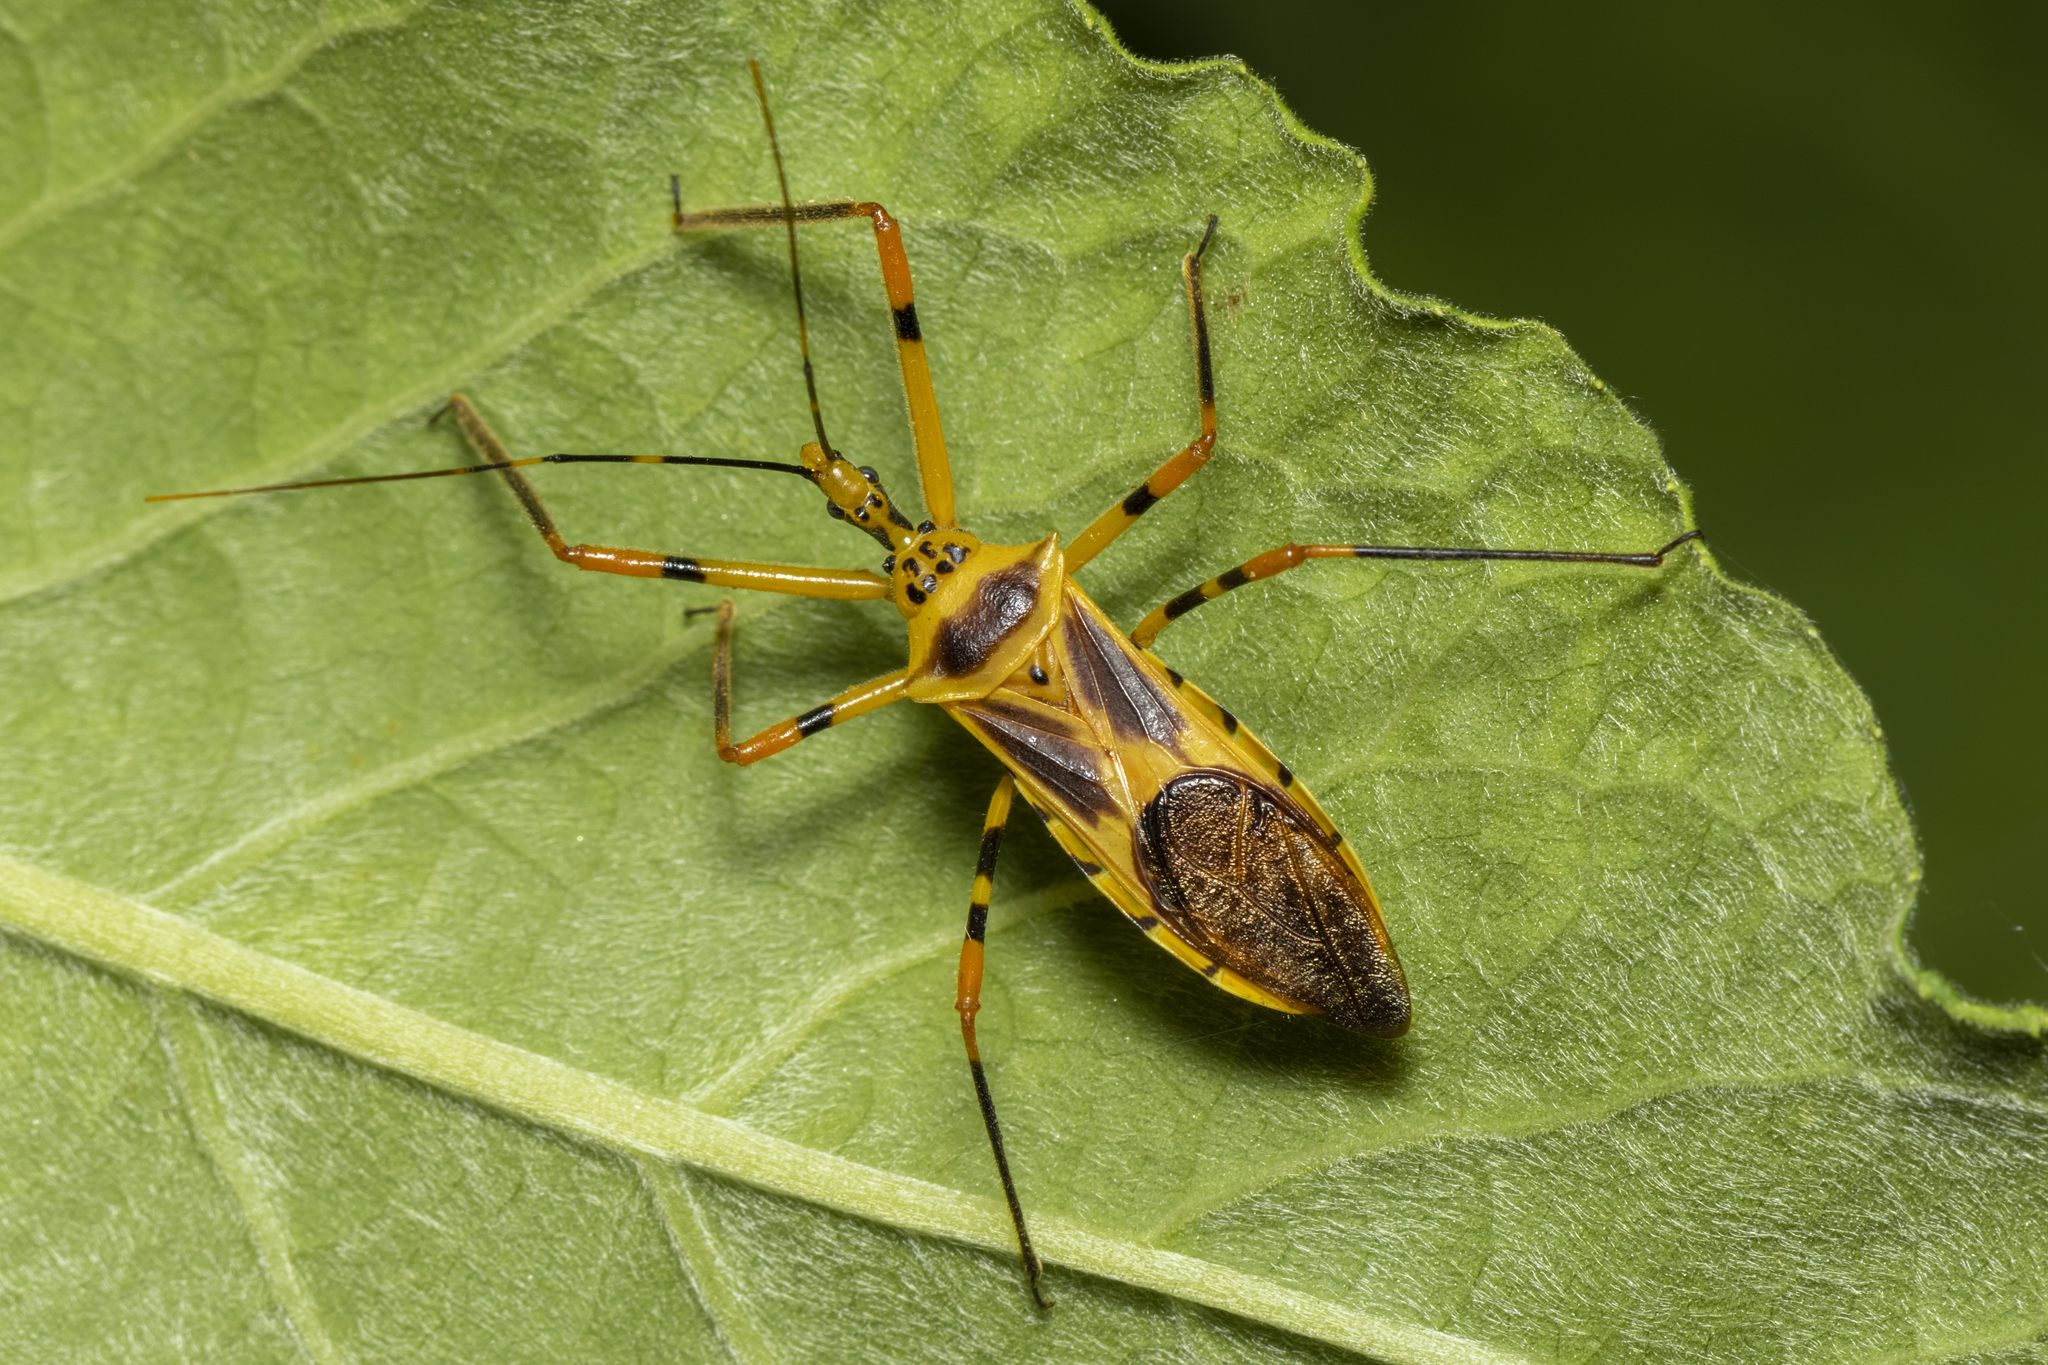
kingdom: Animalia
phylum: Arthropoda
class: Insecta
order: Hemiptera
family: Reduviidae
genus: Zelus
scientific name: Zelus armillatus
